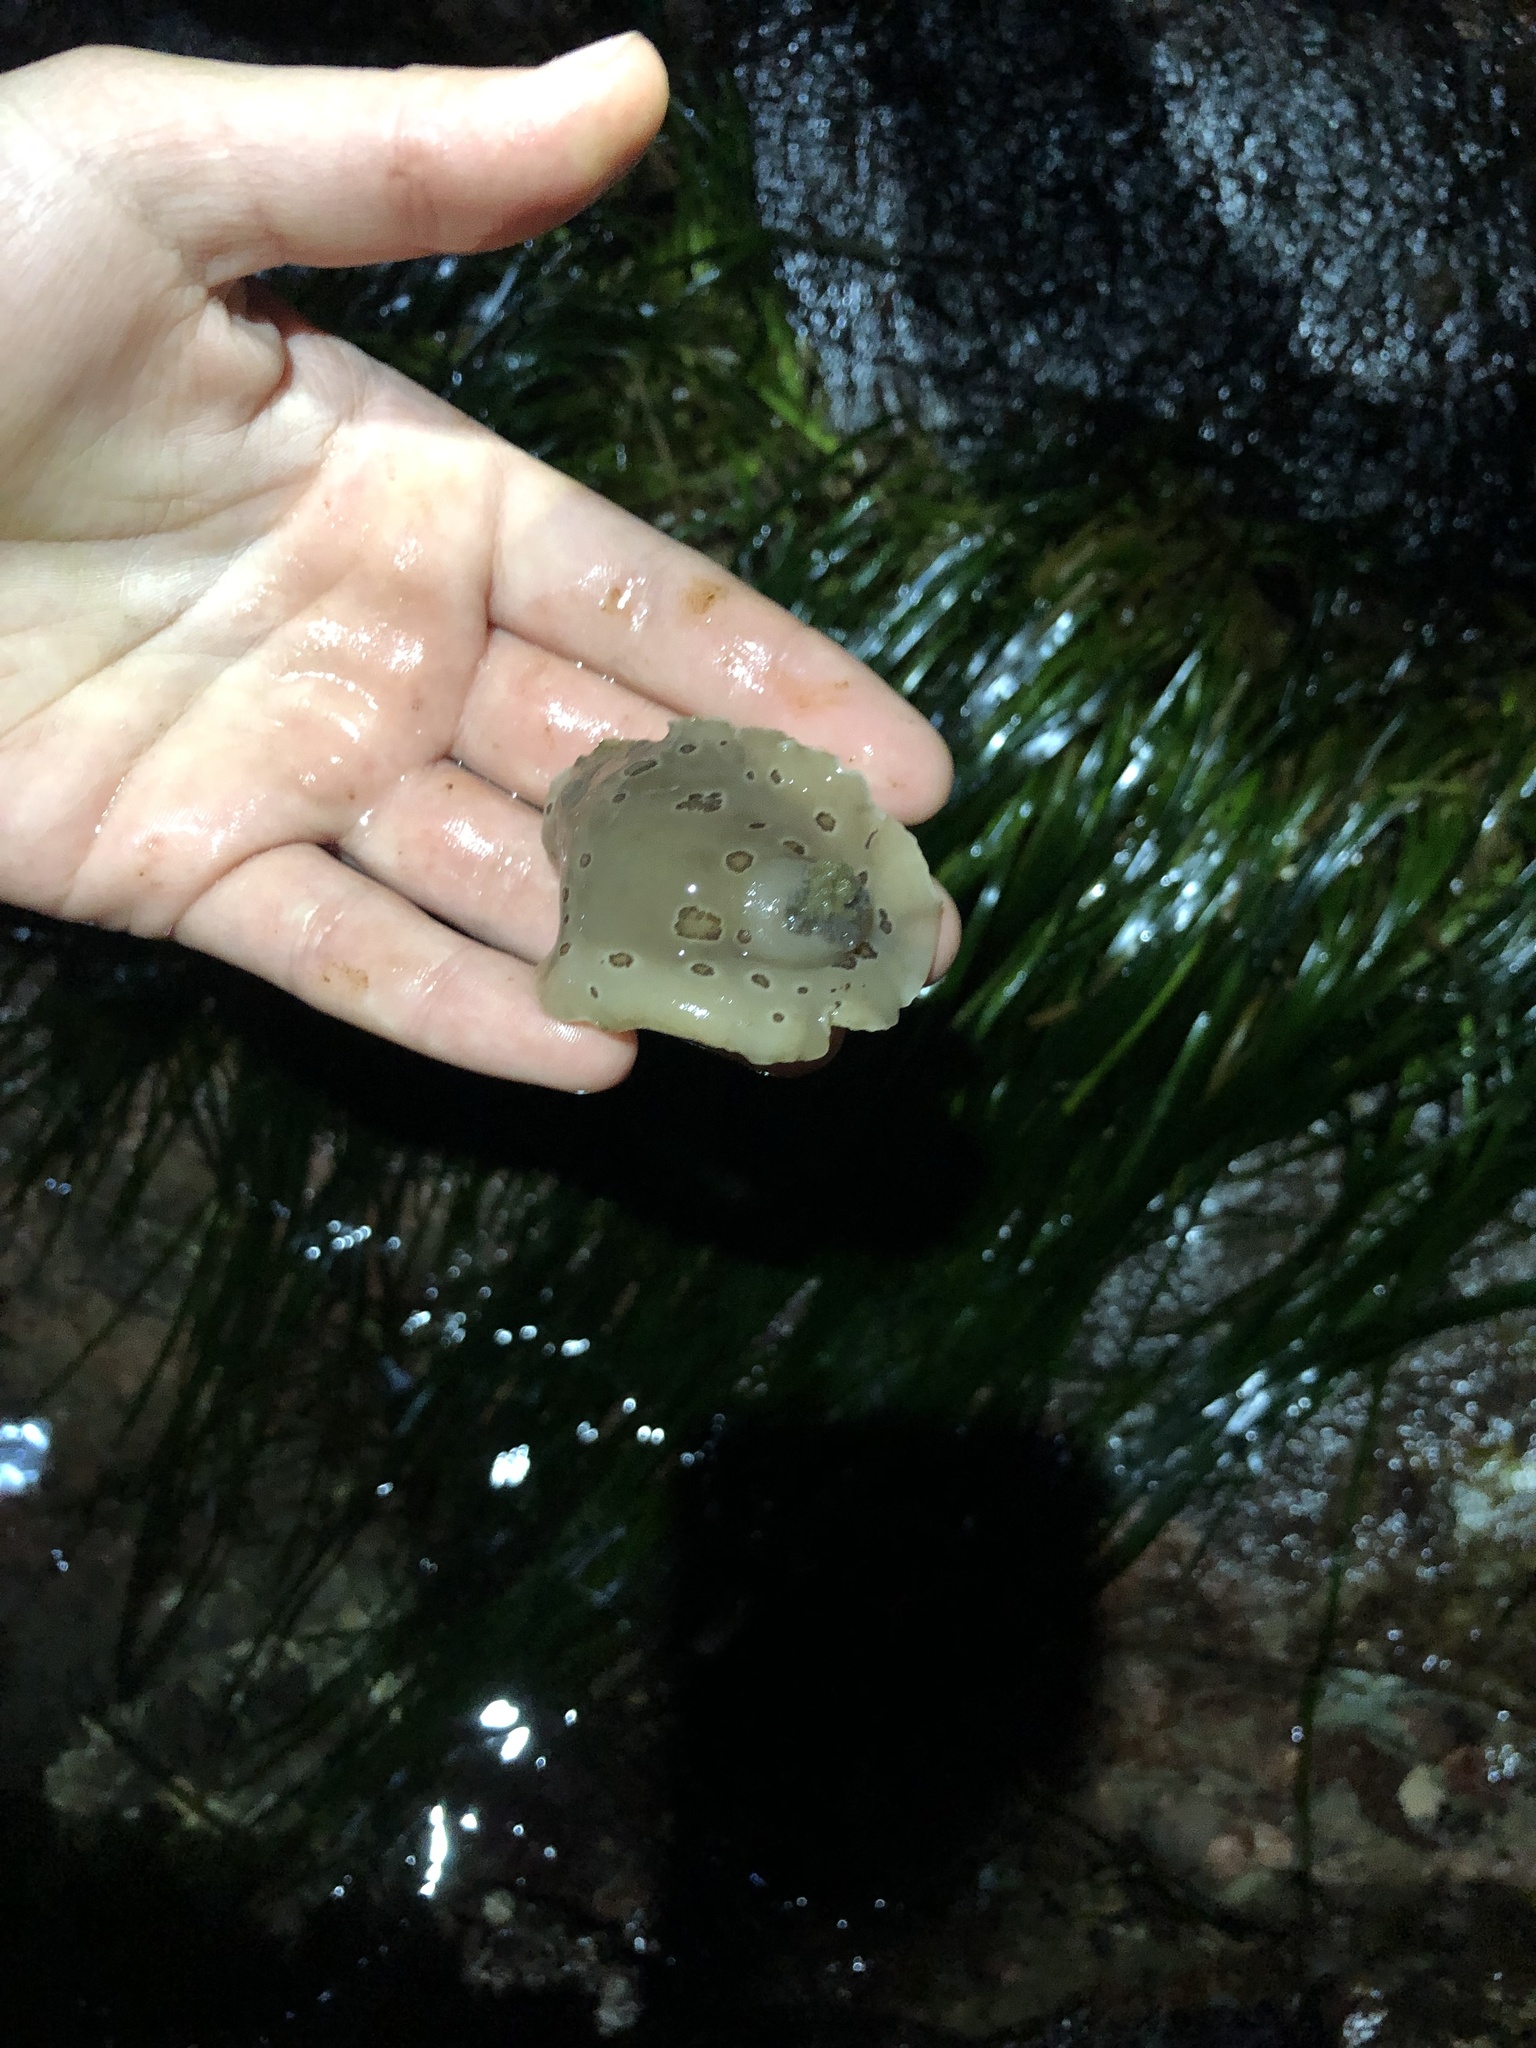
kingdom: Animalia
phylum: Mollusca
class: Gastropoda
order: Nudibranchia
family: Discodorididae
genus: Diaulula
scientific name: Diaulula odonoghuei
